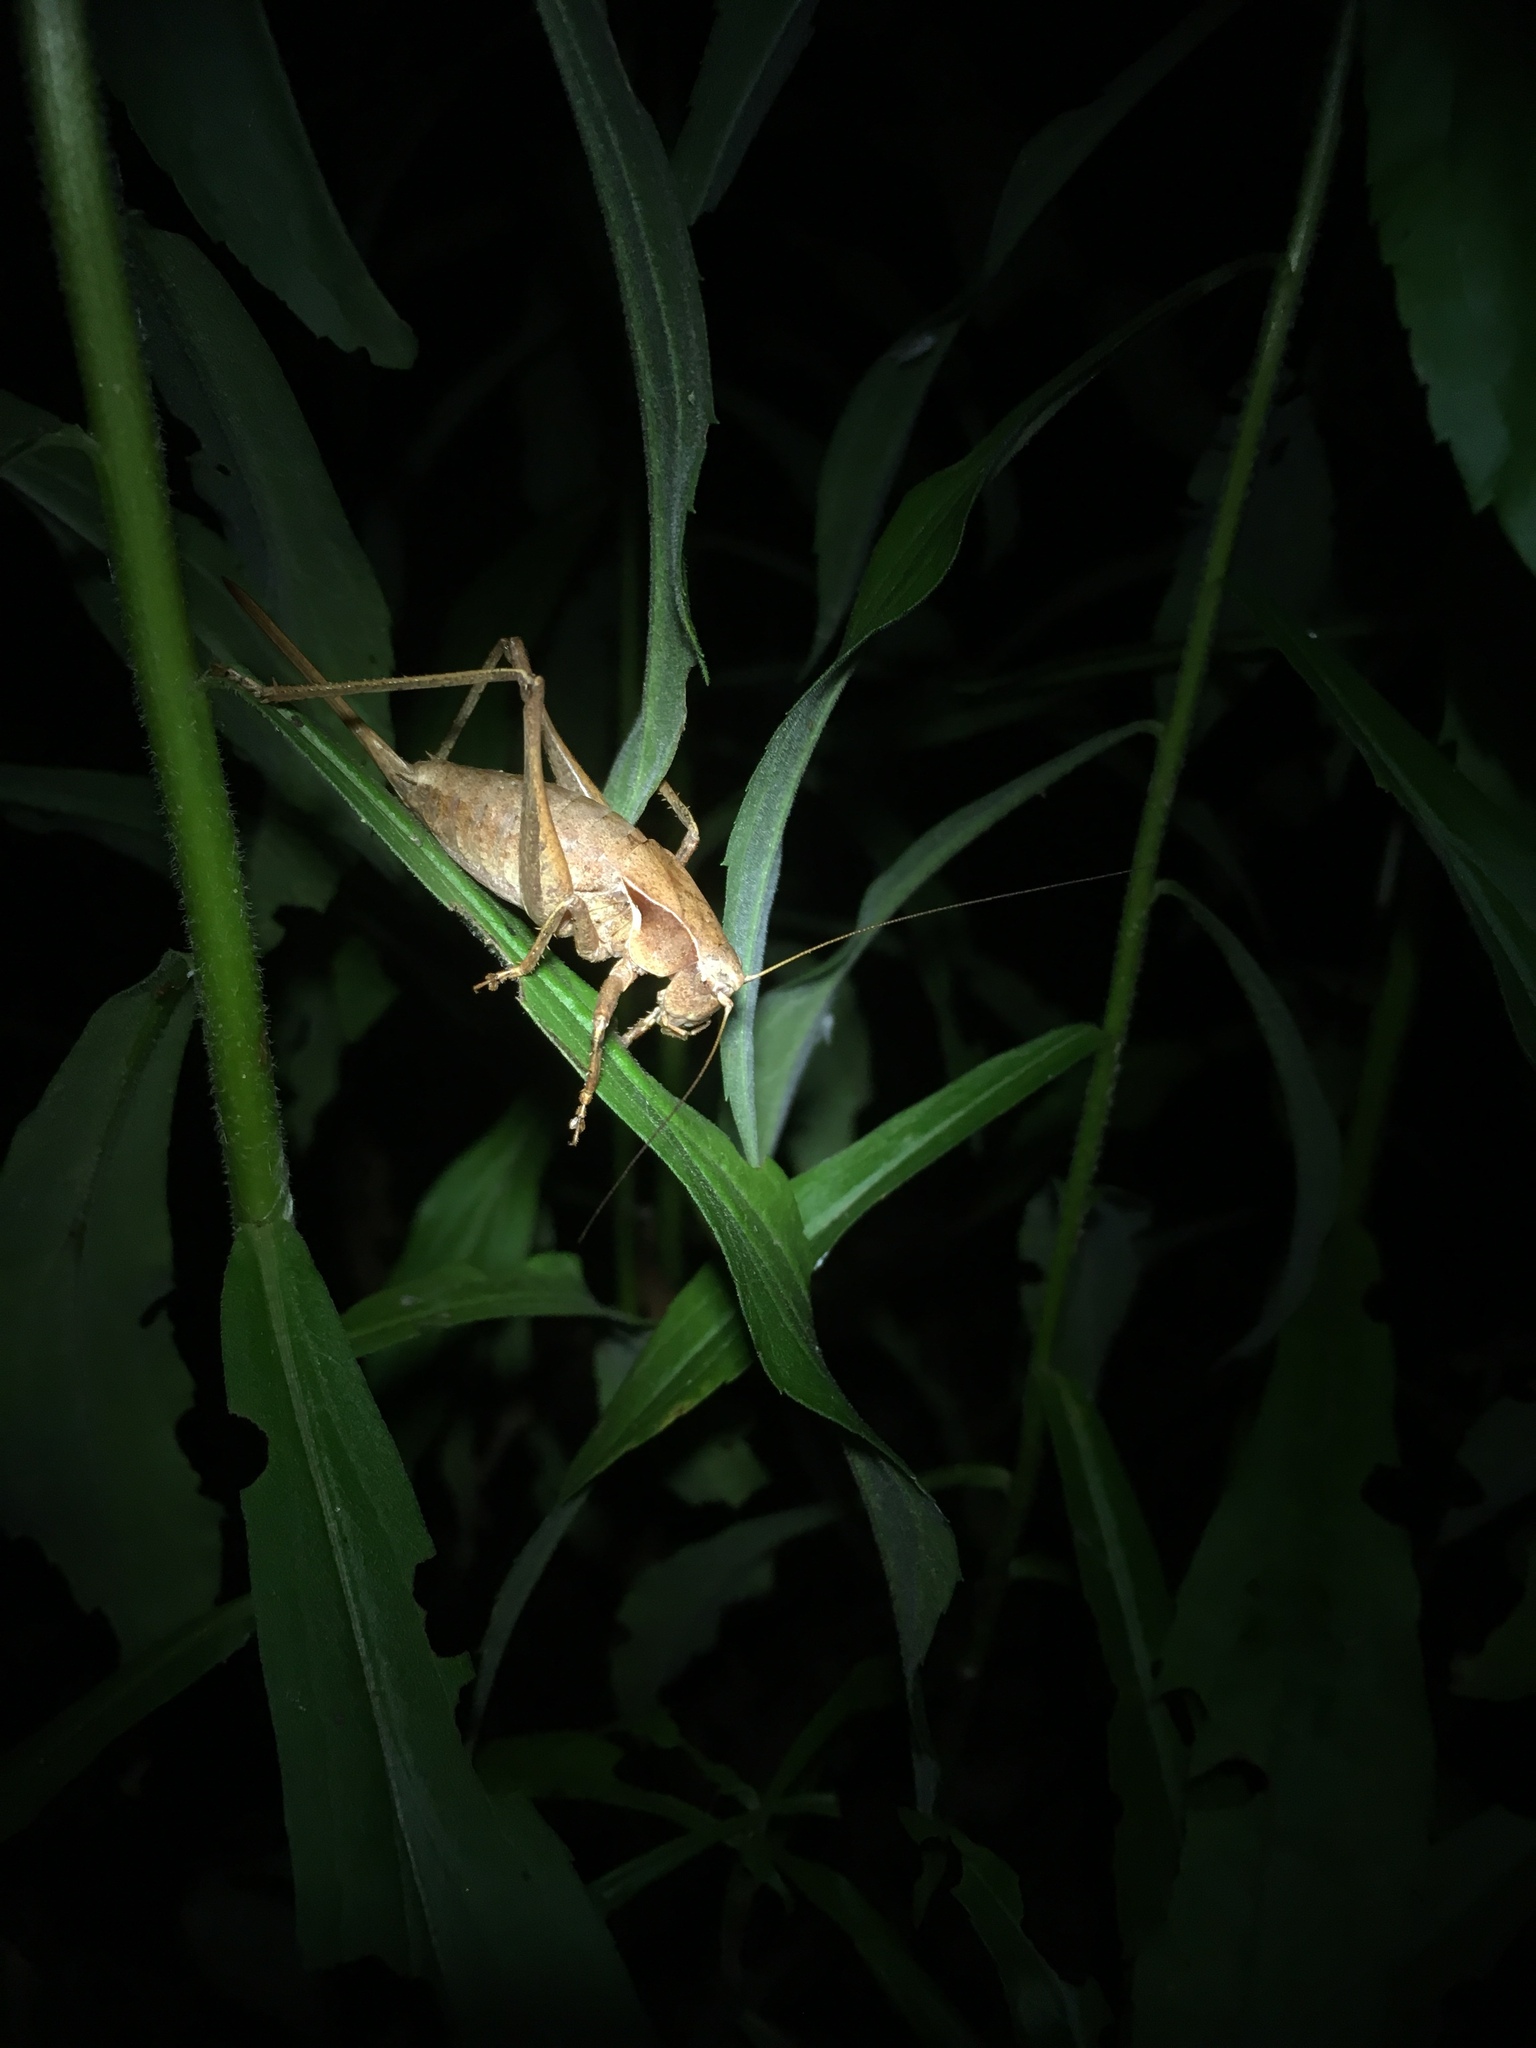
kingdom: Animalia
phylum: Arthropoda
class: Insecta
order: Orthoptera
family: Tettigoniidae
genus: Atlanticus
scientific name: Atlanticus davisi
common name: Davis's shield-bearer
